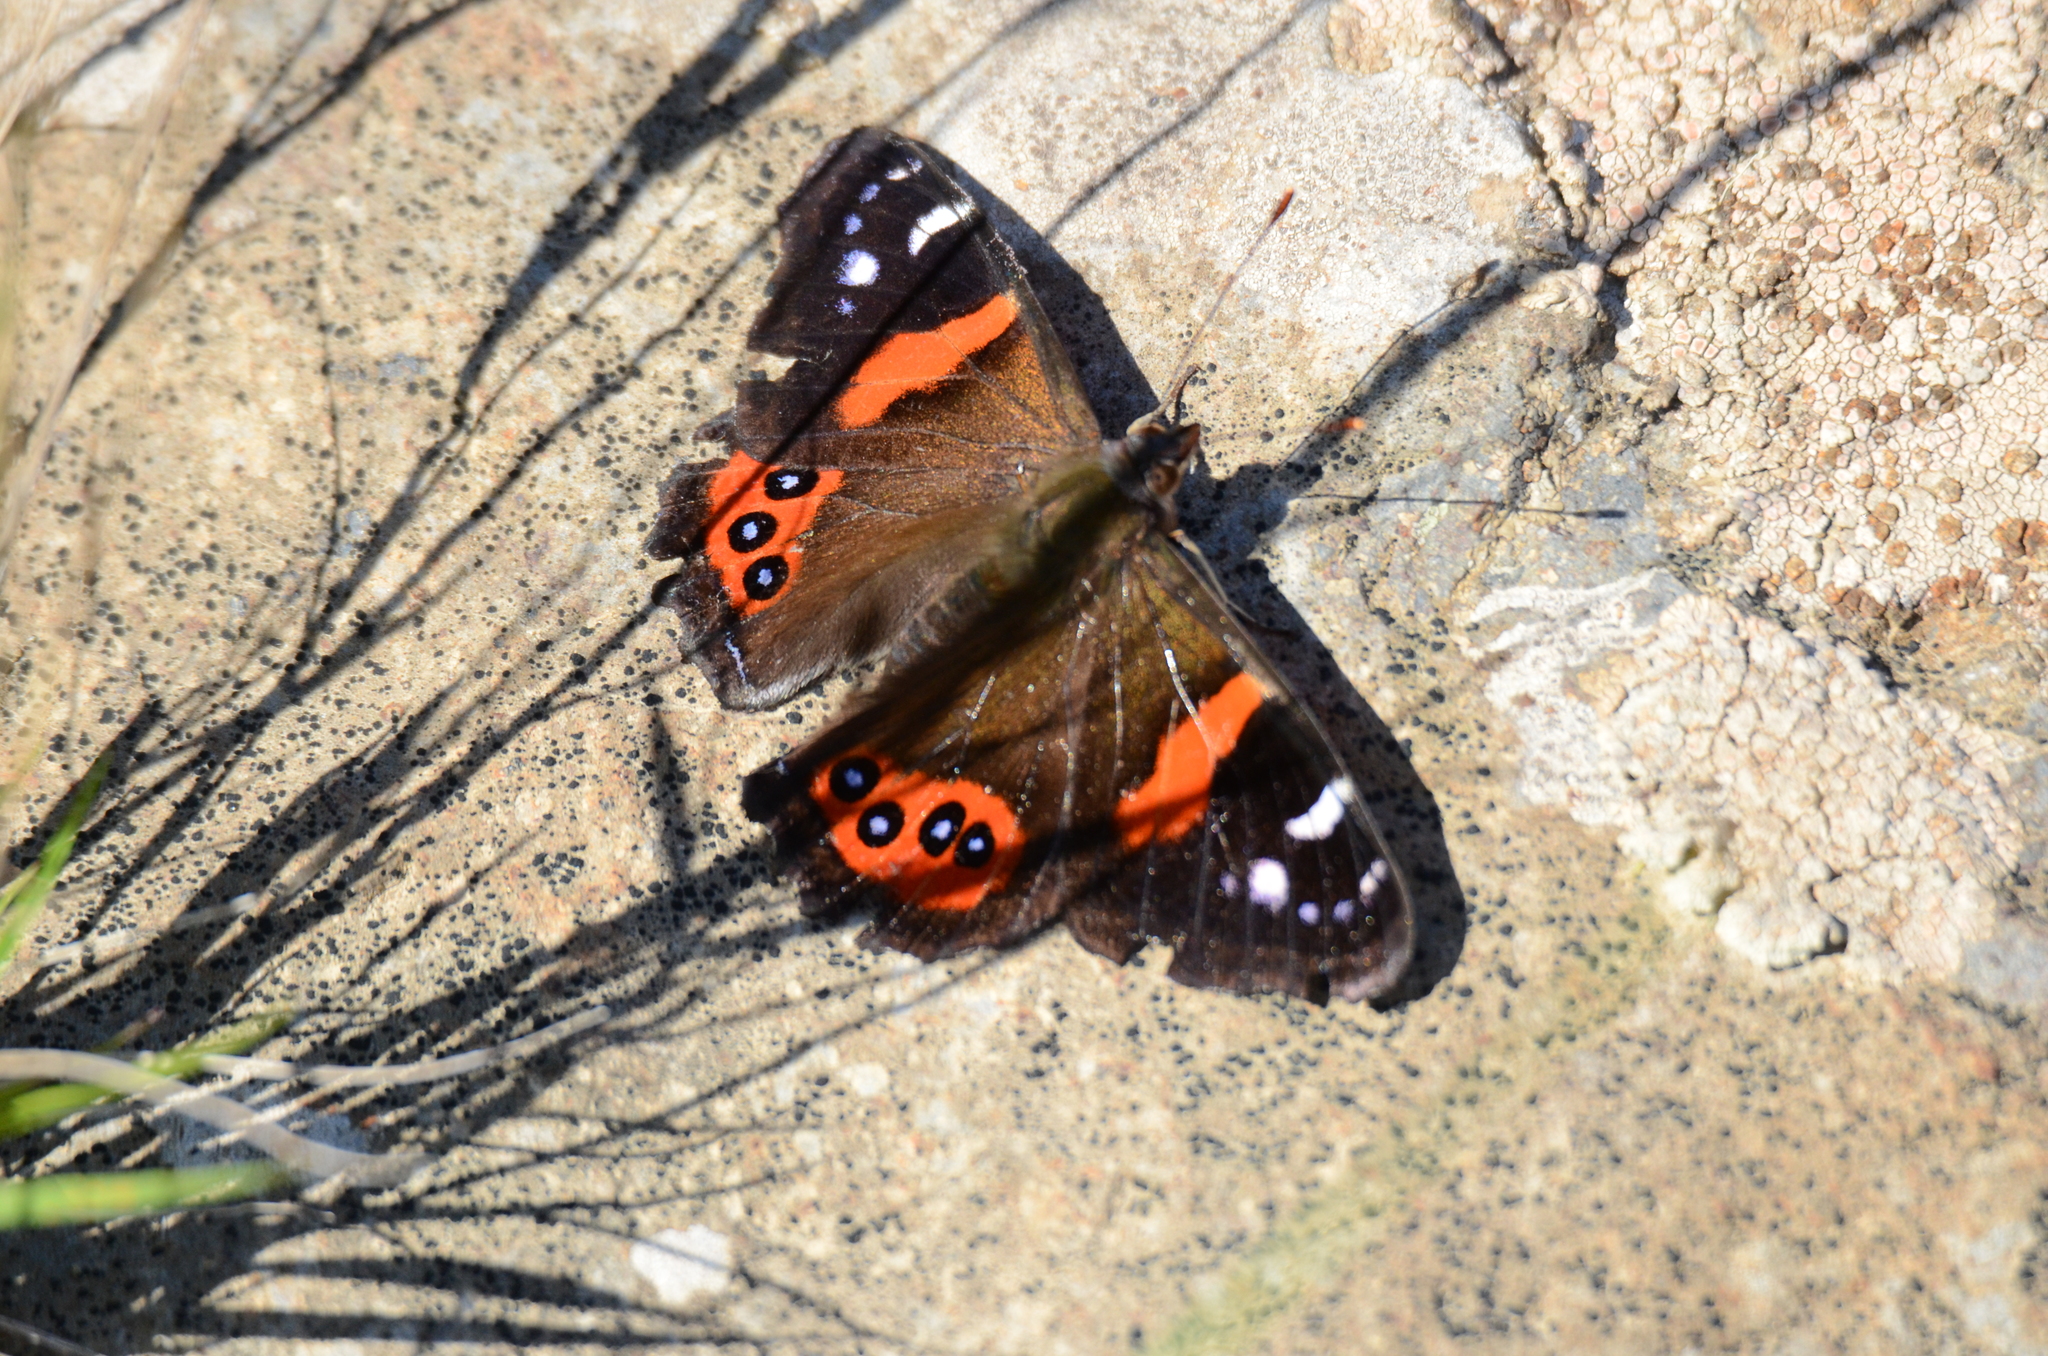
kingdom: Animalia
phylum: Arthropoda
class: Insecta
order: Lepidoptera
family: Nymphalidae
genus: Vanessa
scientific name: Vanessa gonerilla
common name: New zealand red admiral
